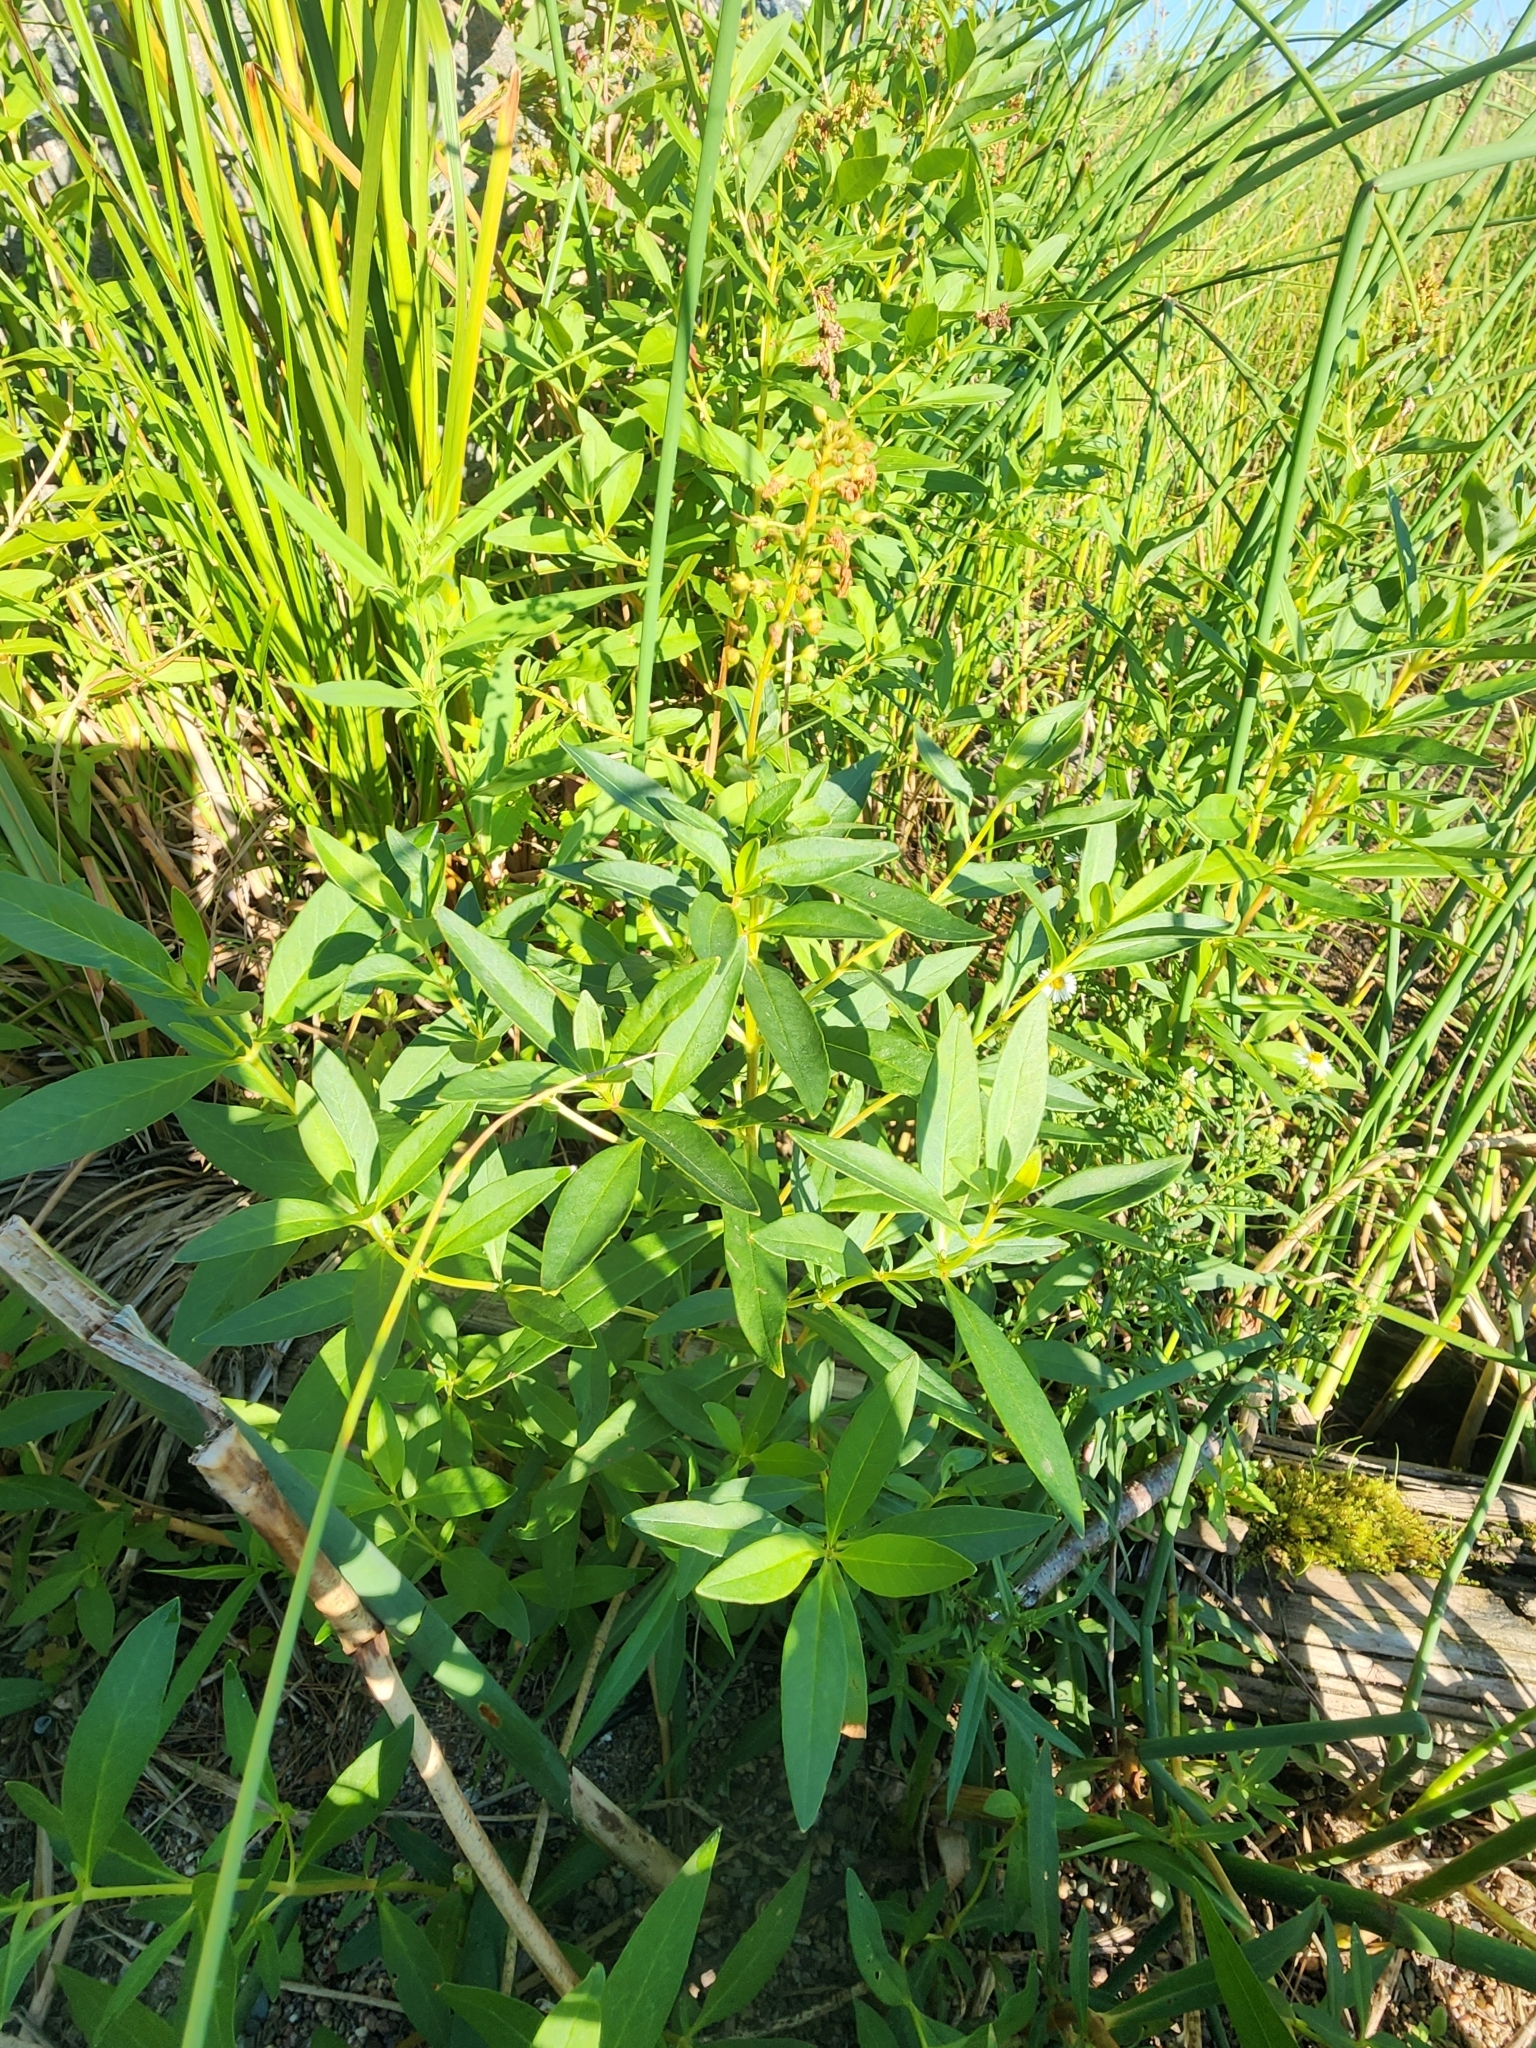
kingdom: Plantae
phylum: Tracheophyta
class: Magnoliopsida
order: Ericales
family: Primulaceae
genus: Lysimachia
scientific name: Lysimachia terrestris
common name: Lake loosestrife
